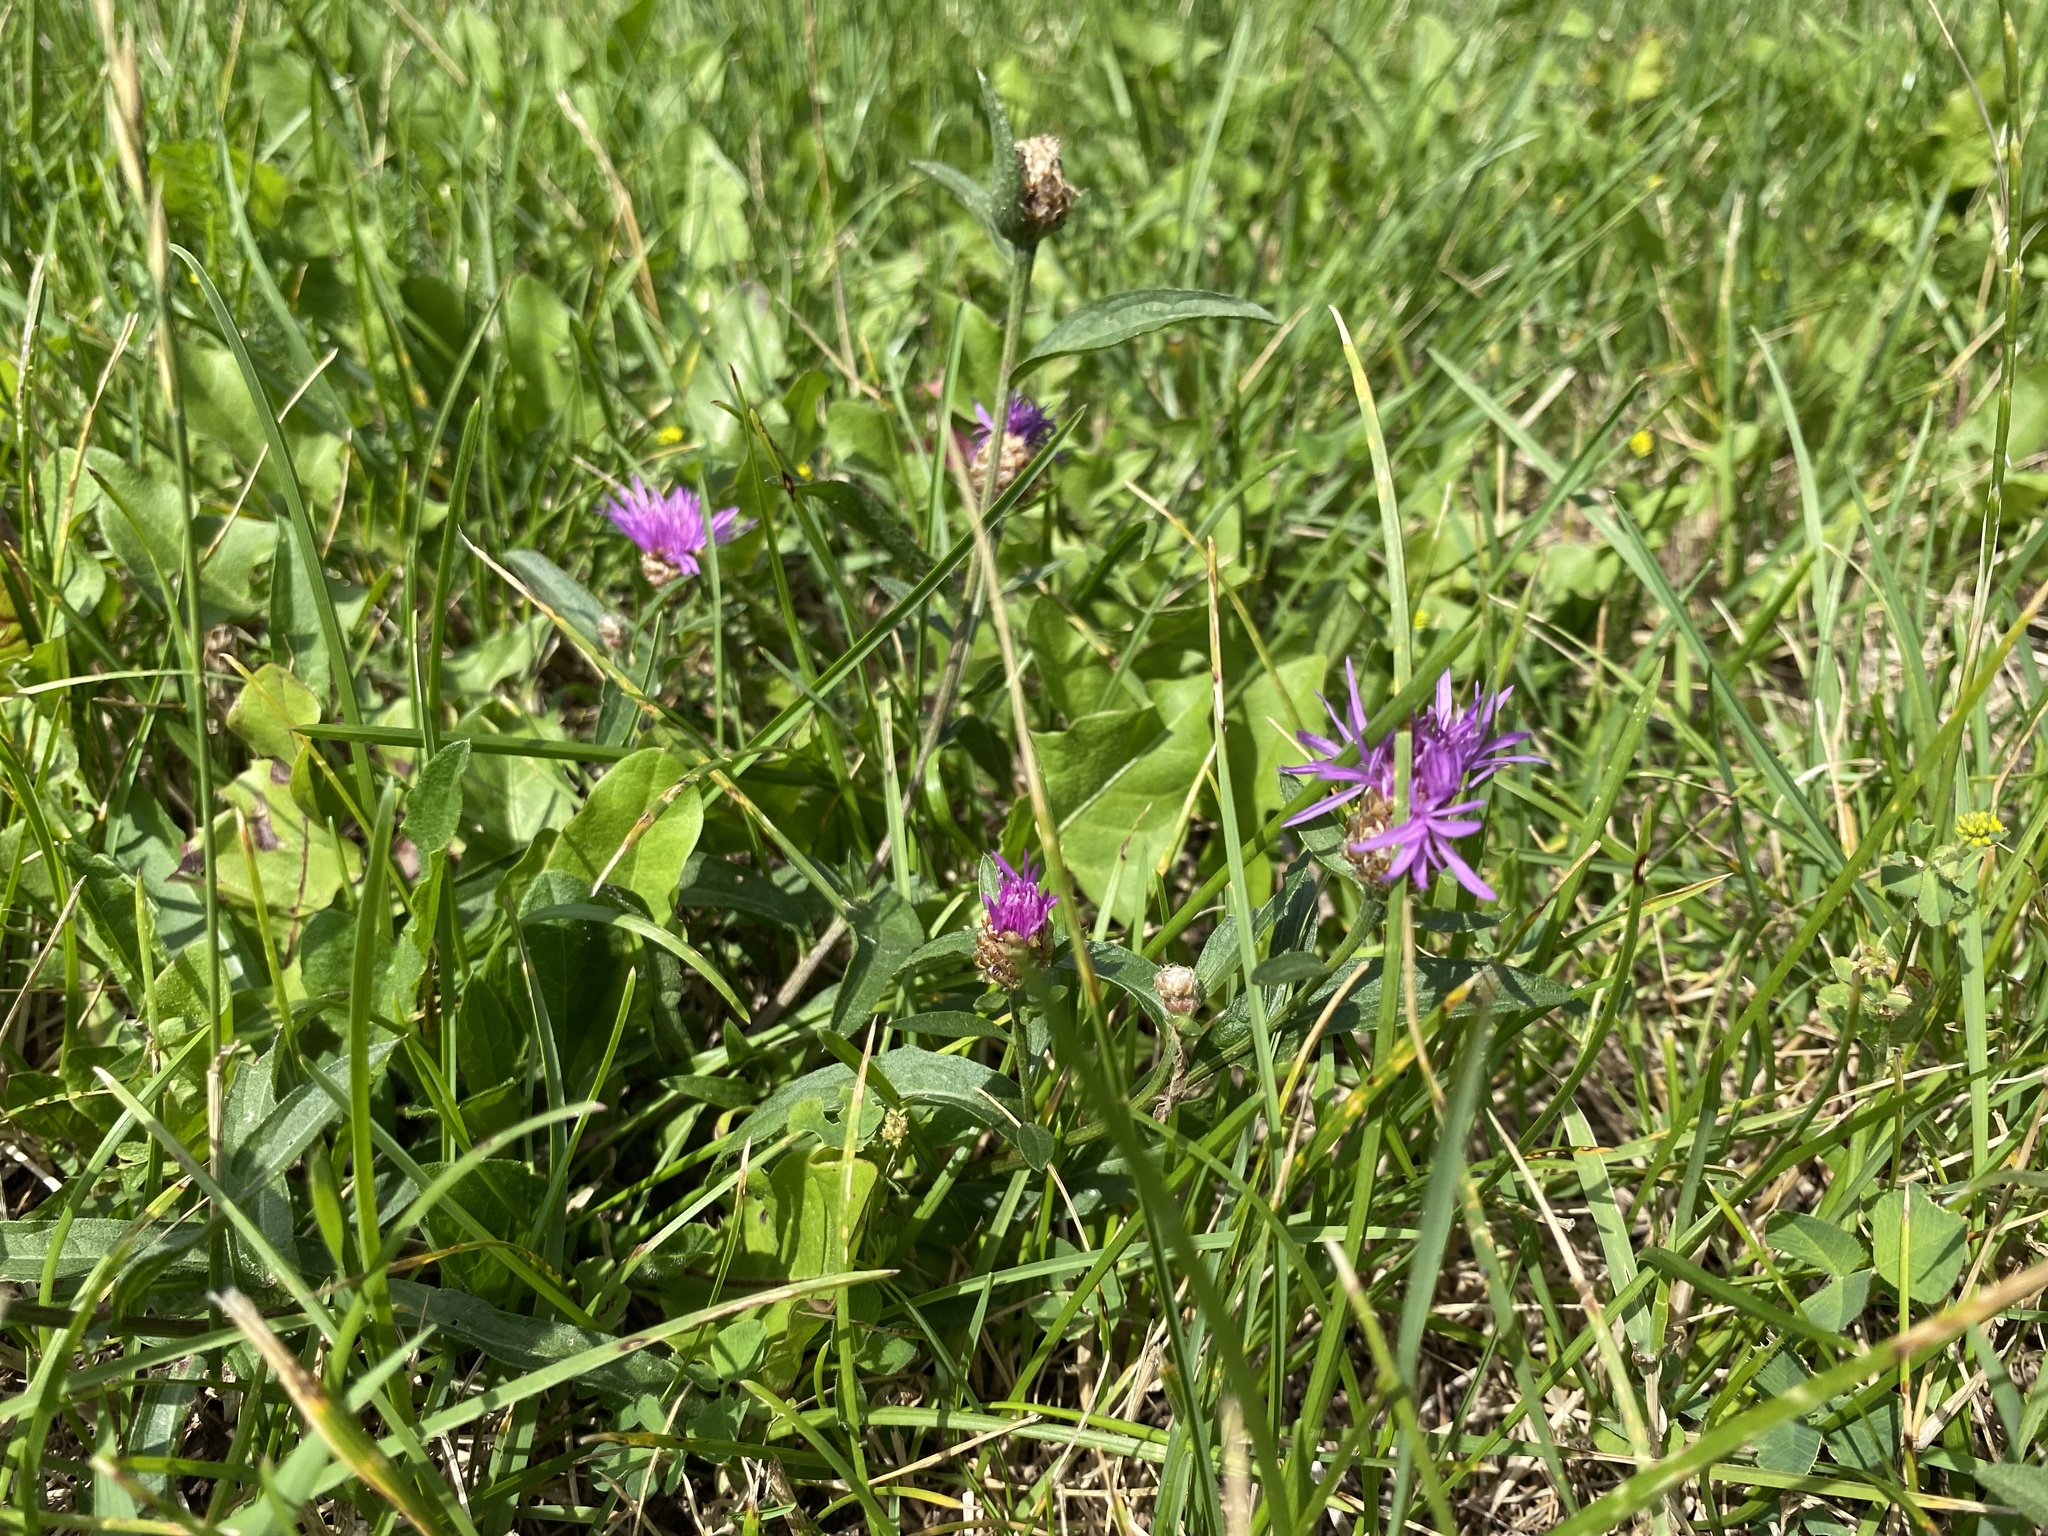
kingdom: Plantae
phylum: Tracheophyta
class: Magnoliopsida
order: Asterales
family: Asteraceae
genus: Centaurea
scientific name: Centaurea jacea
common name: Brown knapweed
